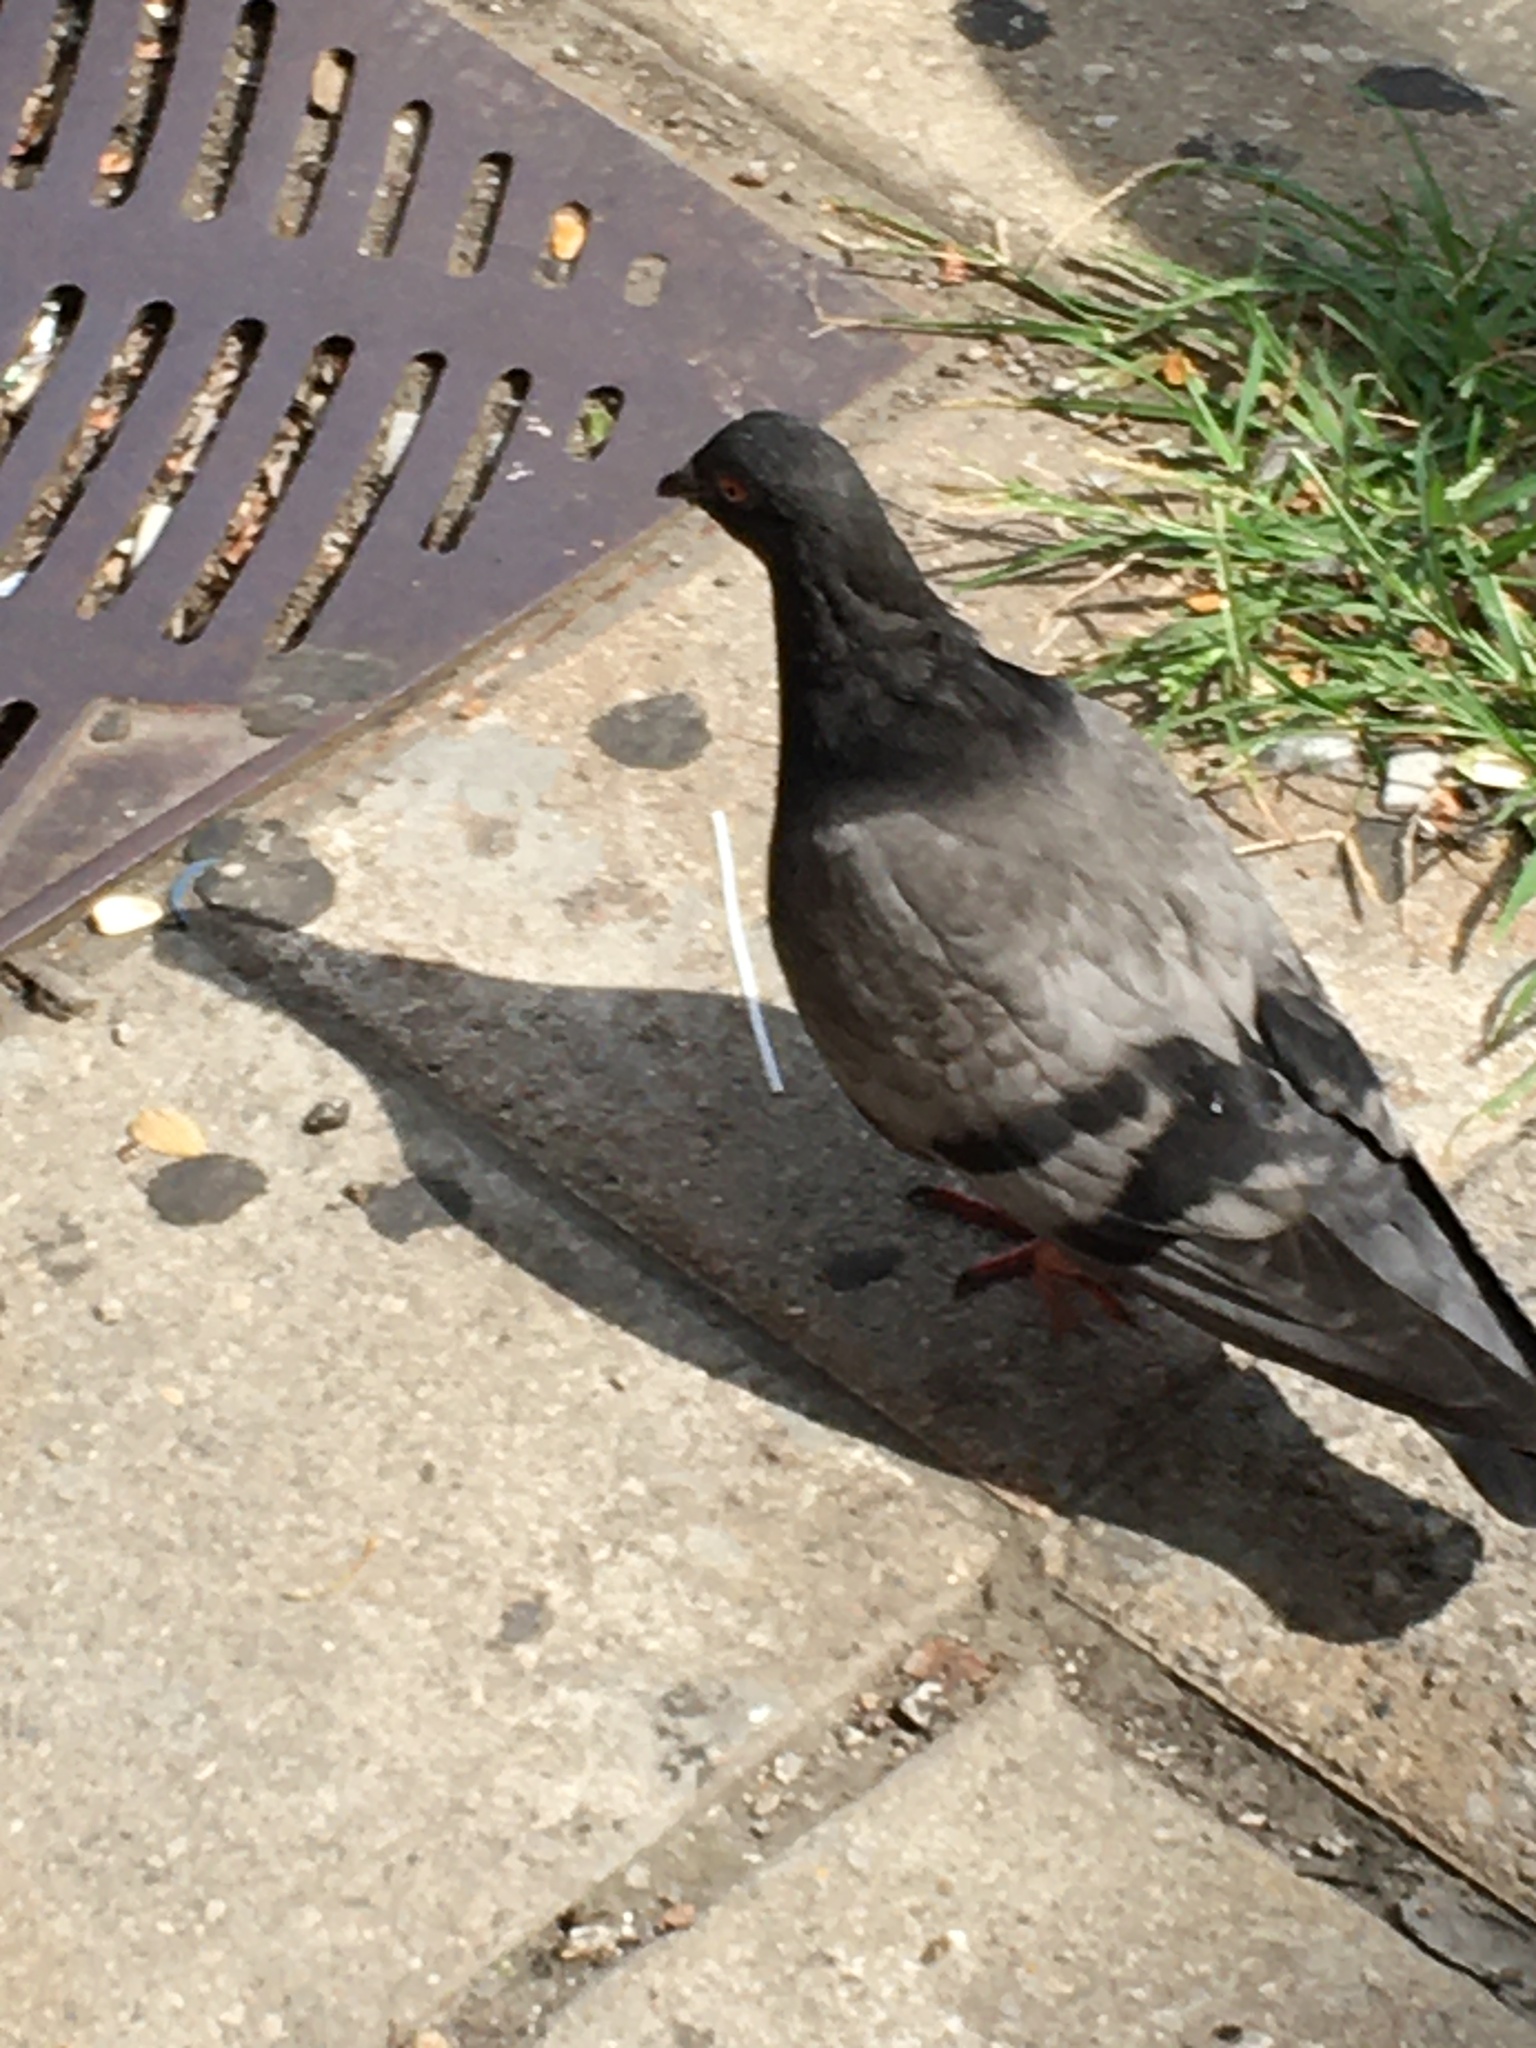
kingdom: Animalia
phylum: Chordata
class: Aves
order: Columbiformes
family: Columbidae
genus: Columba
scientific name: Columba livia
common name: Rock pigeon
